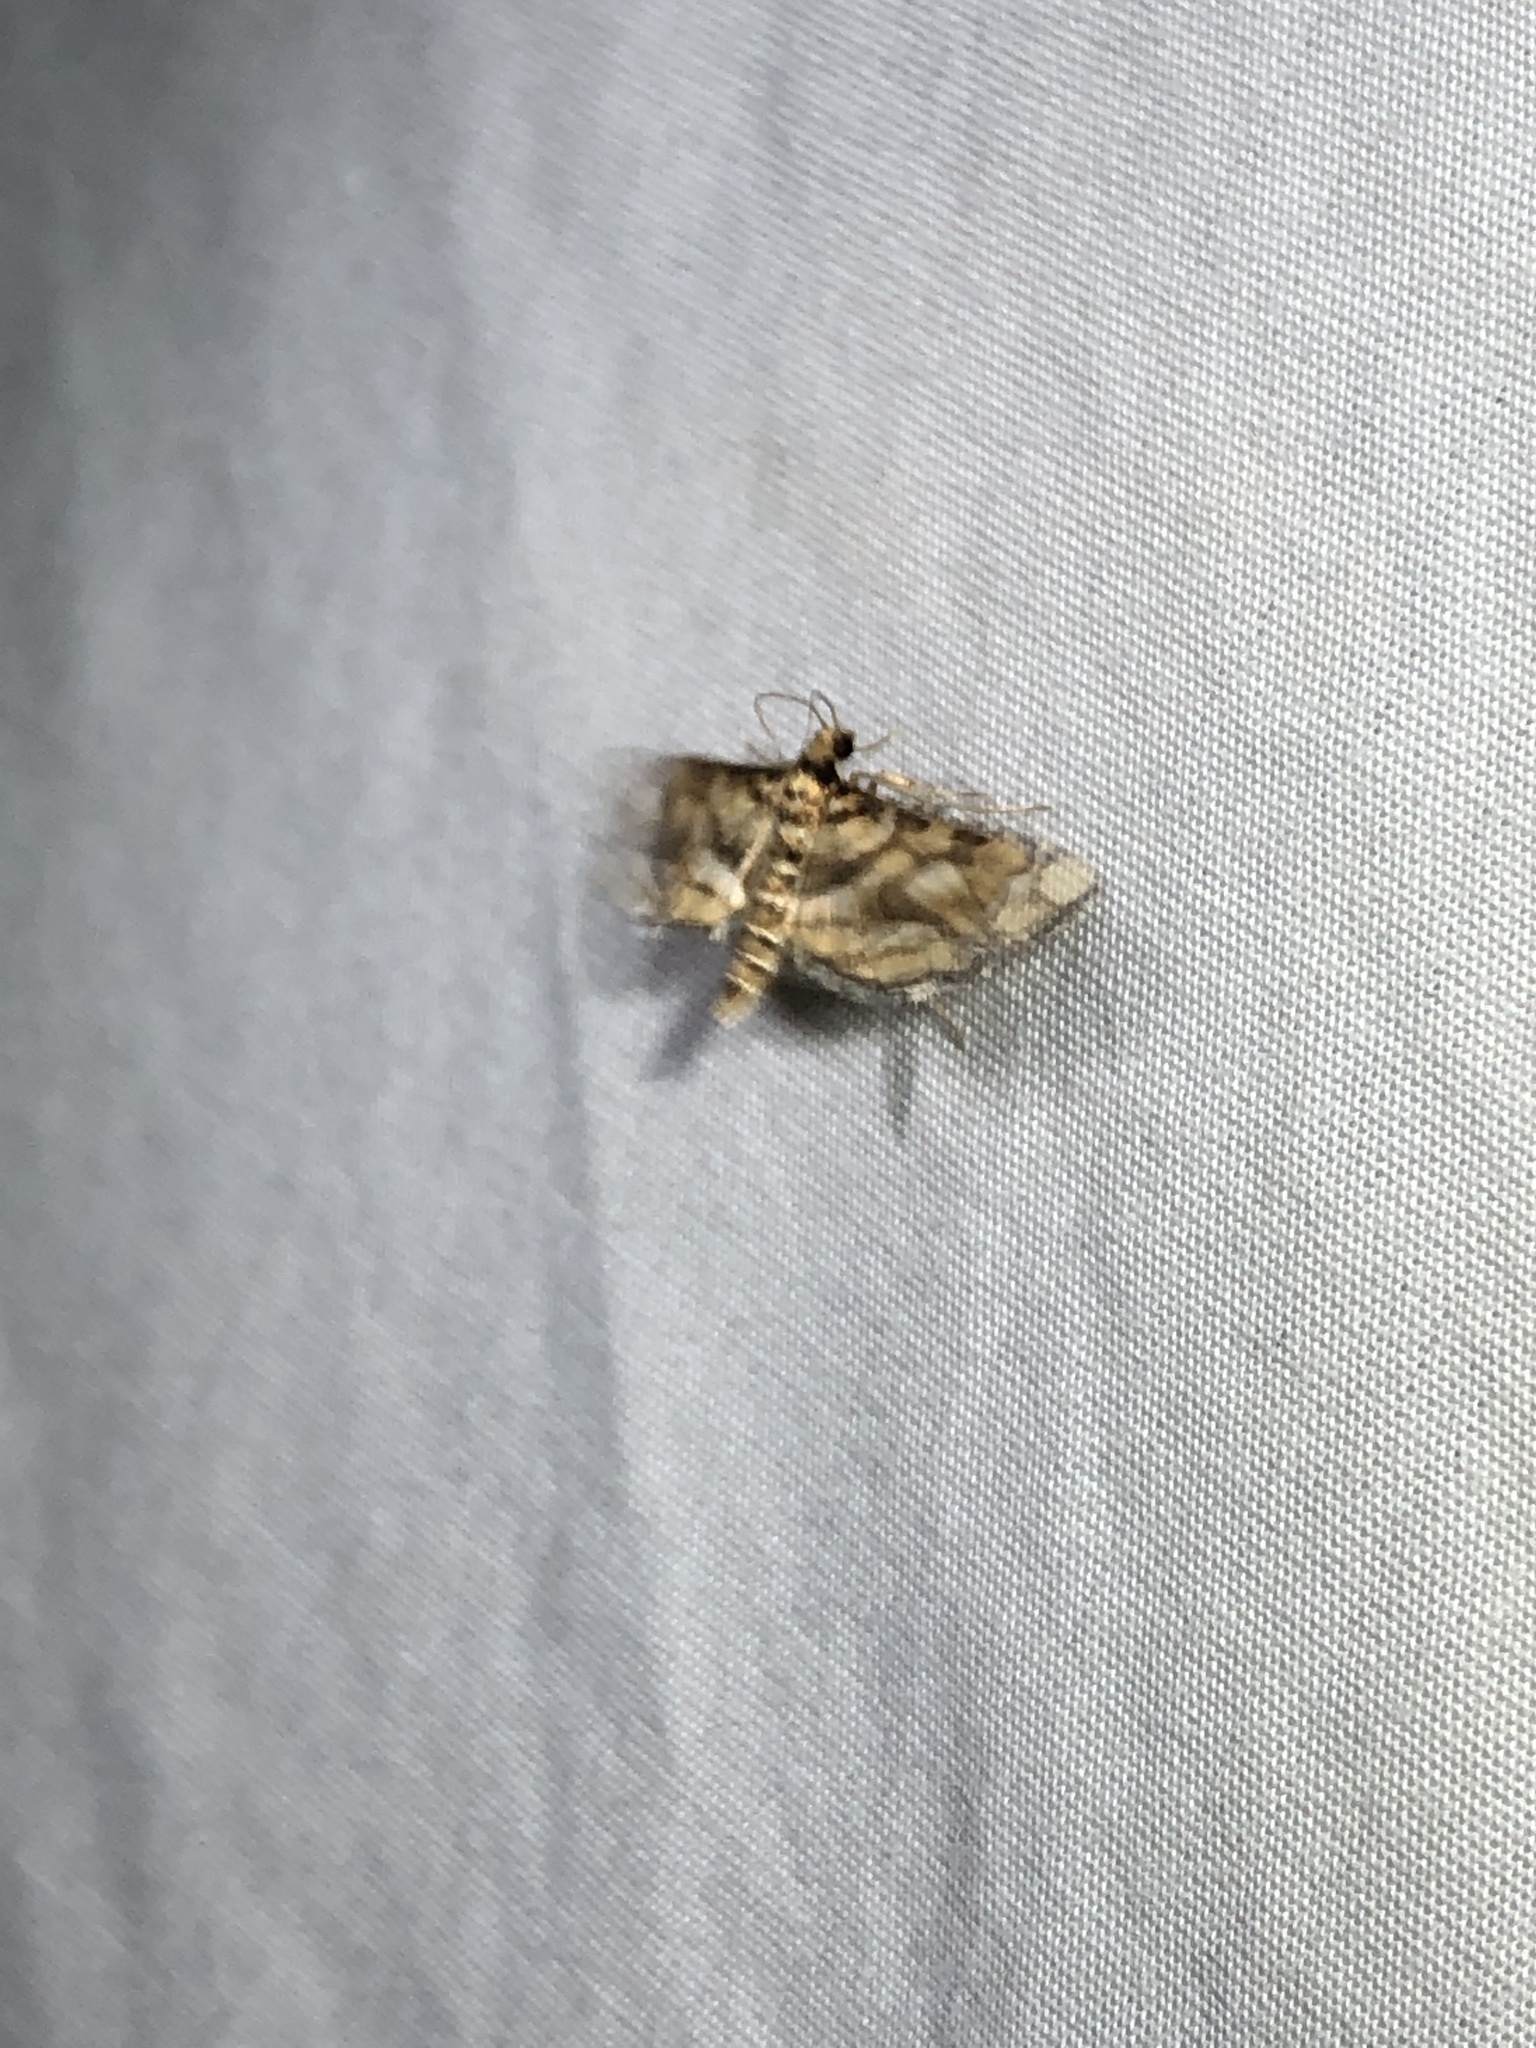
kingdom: Animalia
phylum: Arthropoda
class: Insecta
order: Lepidoptera
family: Crambidae
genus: Hileithia
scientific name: Hileithia magualis
